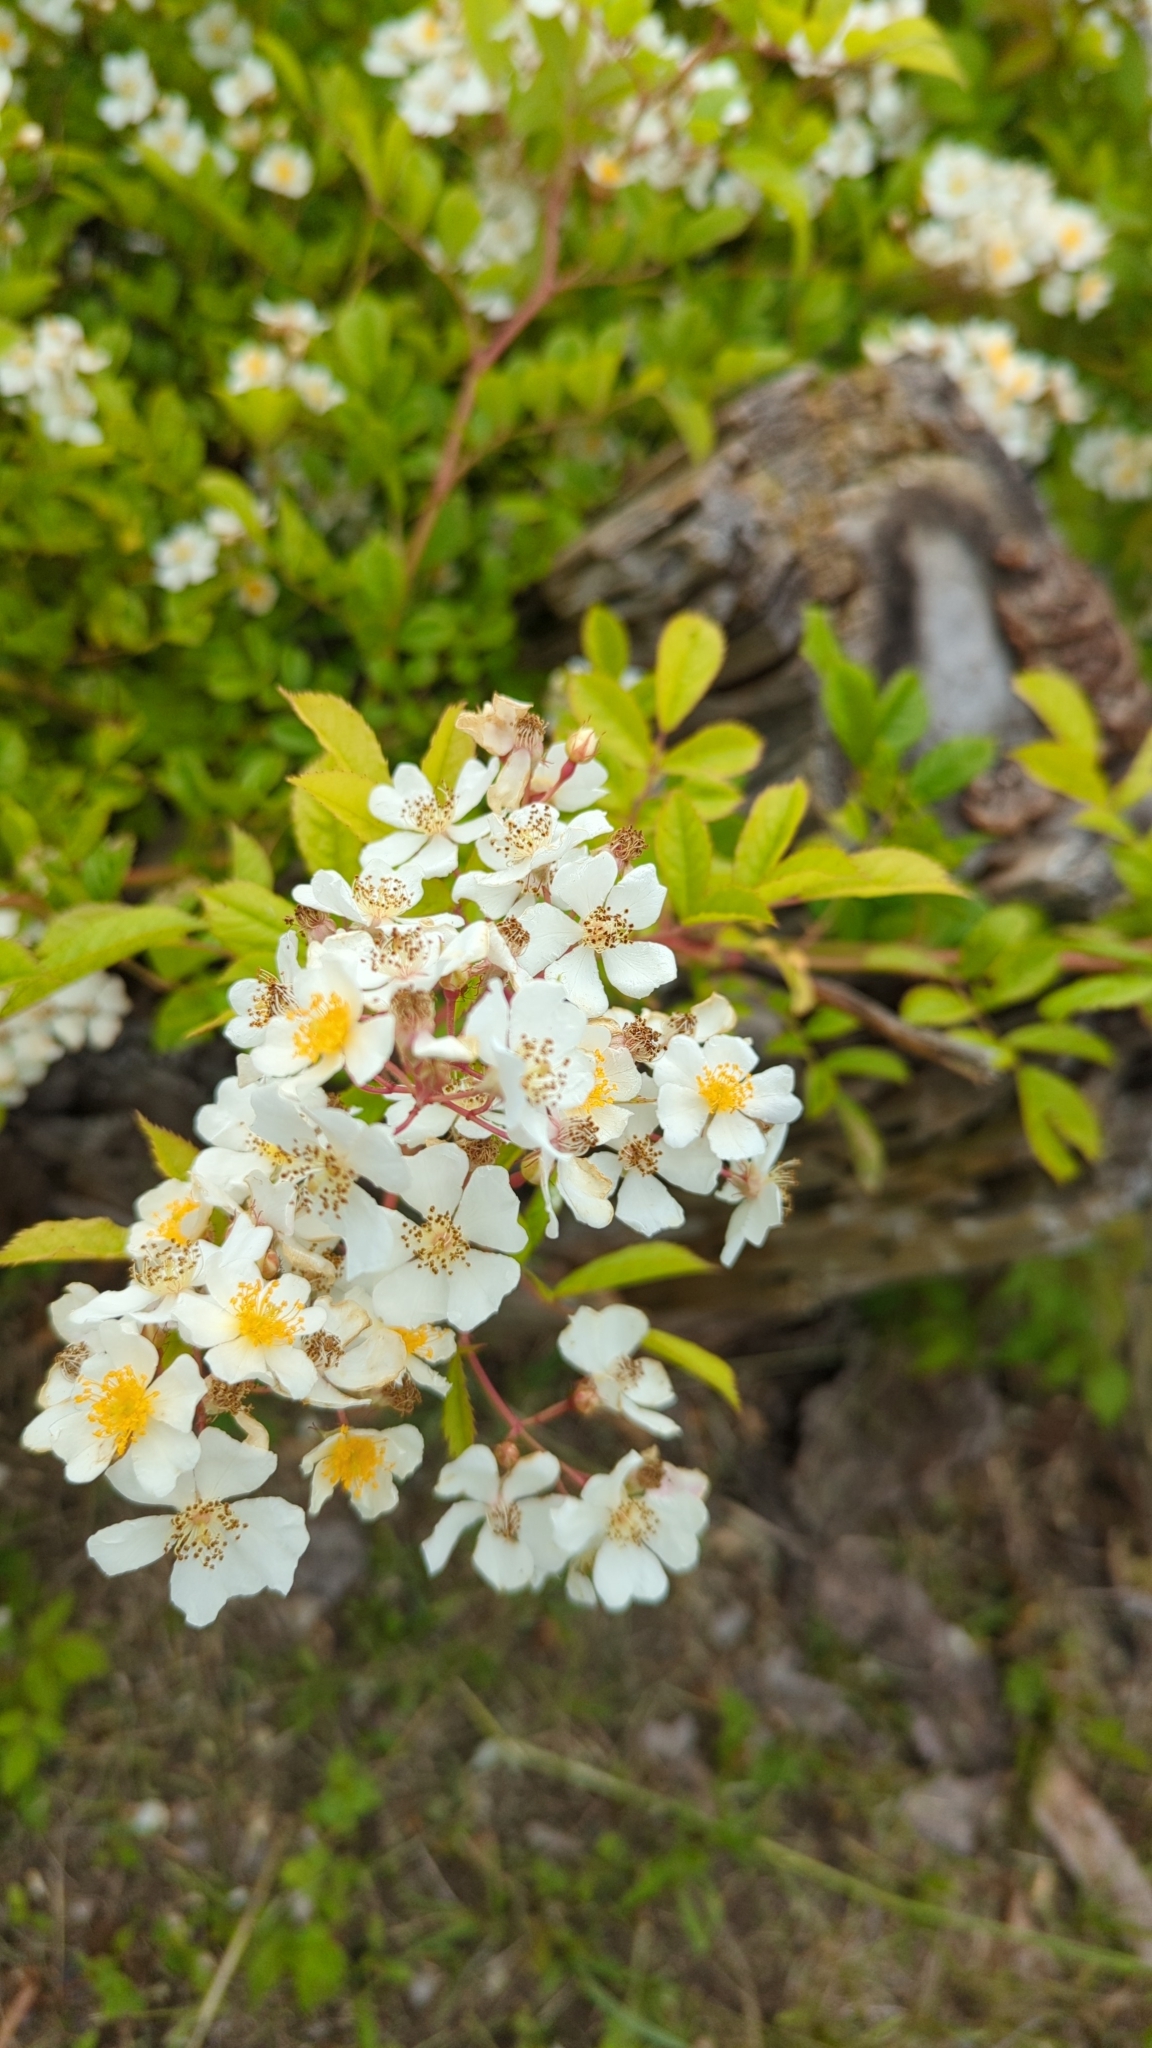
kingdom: Plantae
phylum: Tracheophyta
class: Magnoliopsida
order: Rosales
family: Rosaceae
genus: Rosa
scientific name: Rosa multiflora
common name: Multiflora rose
